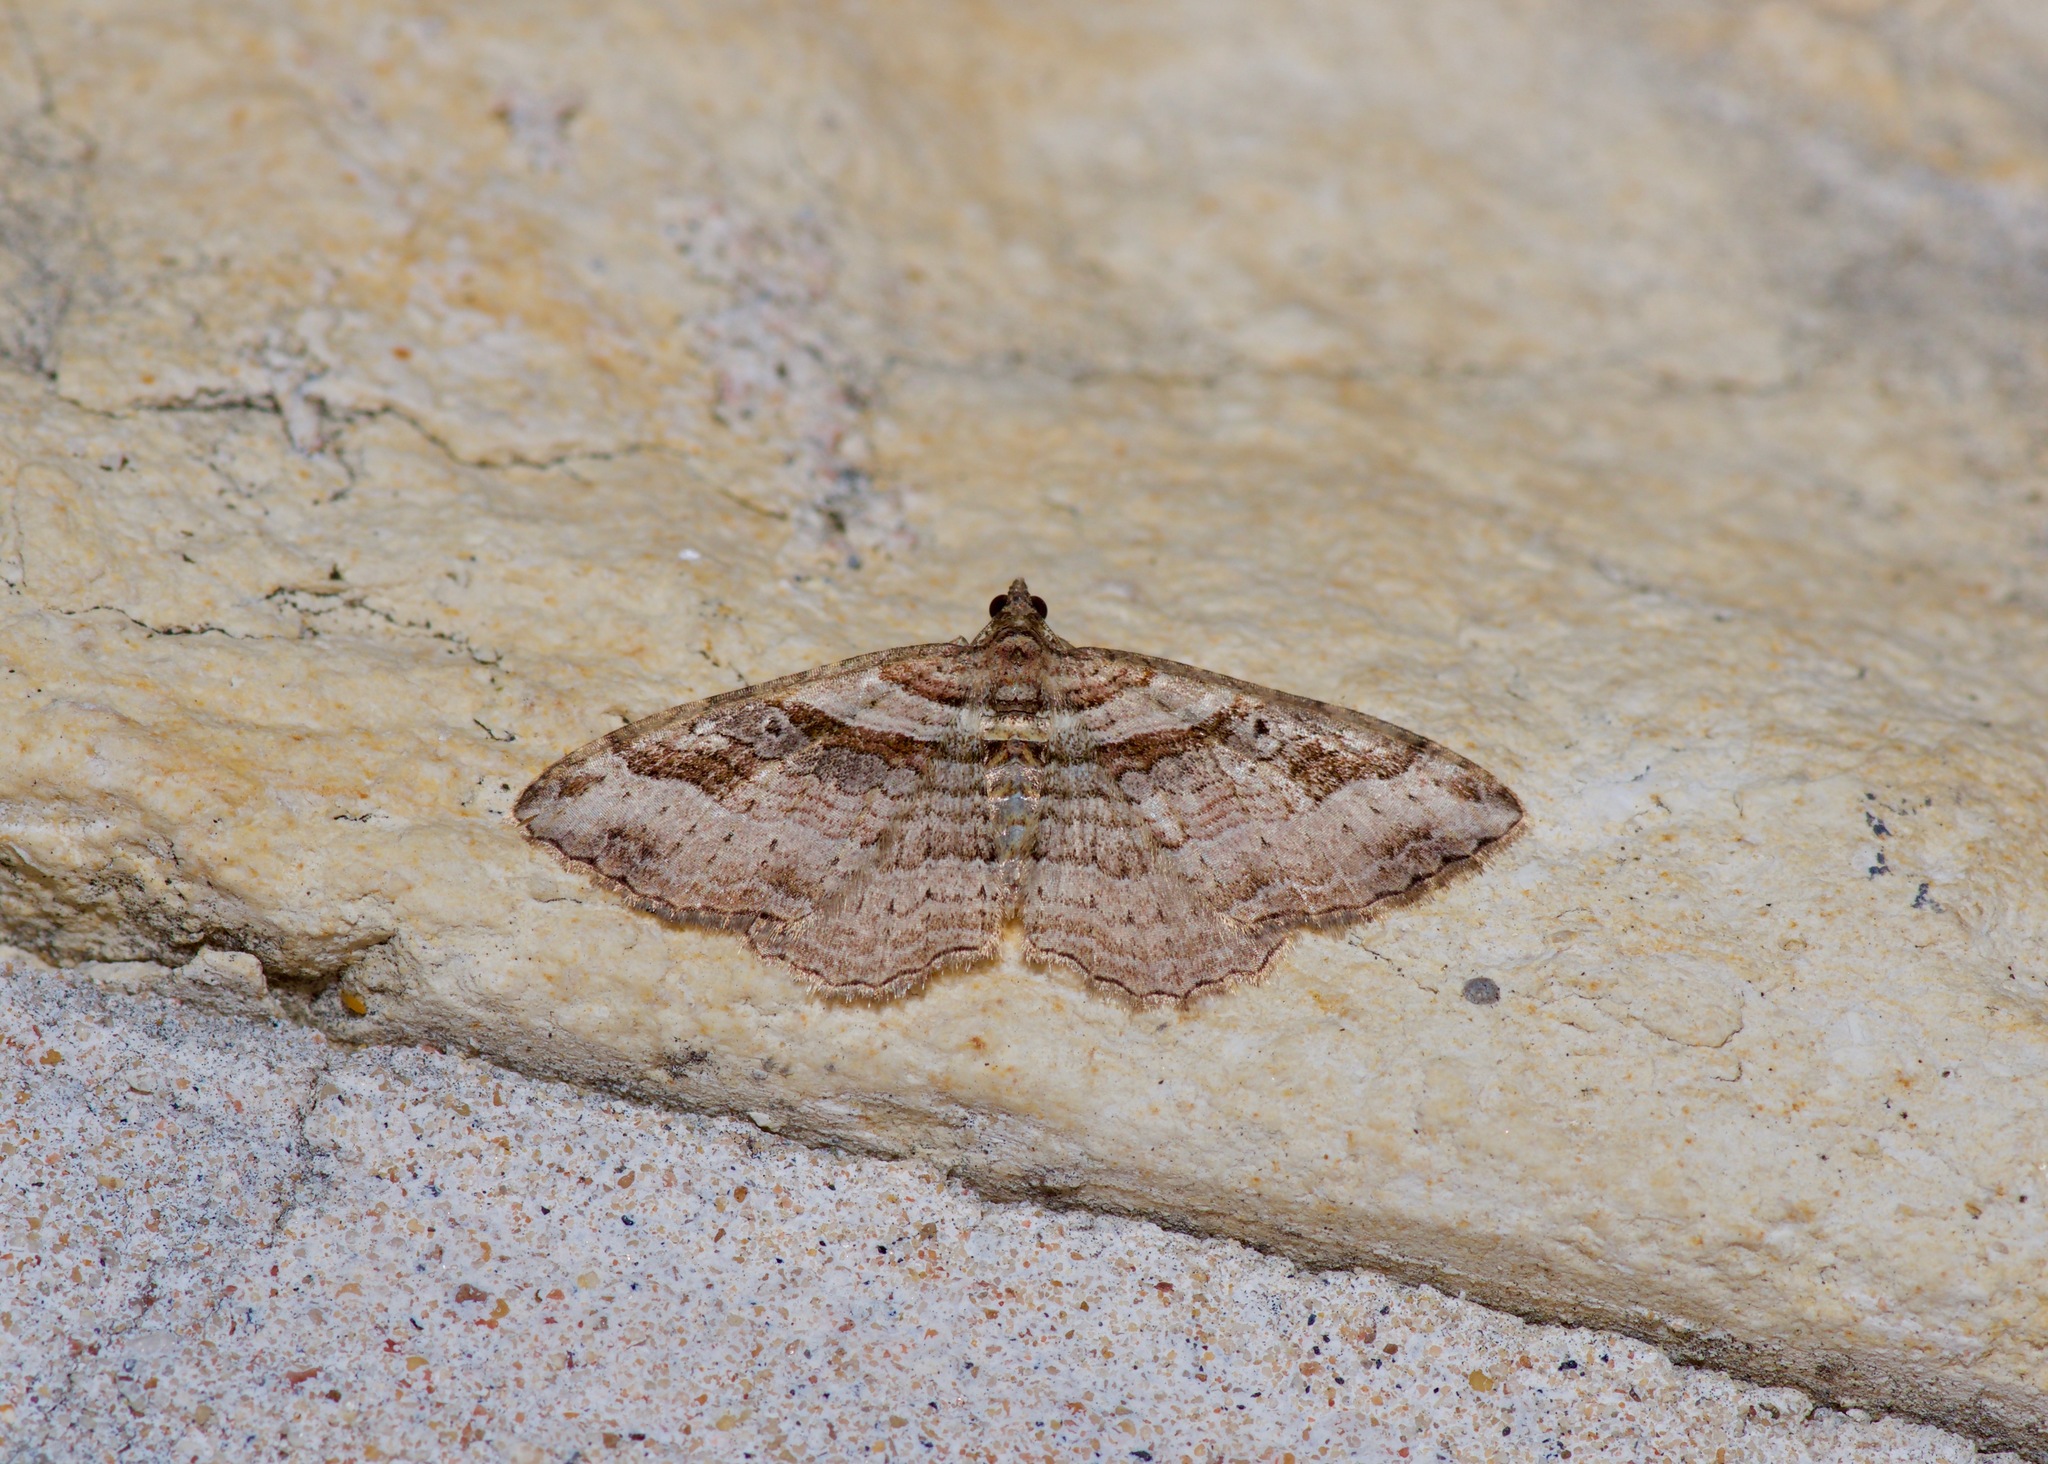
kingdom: Animalia
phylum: Arthropoda
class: Insecta
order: Lepidoptera
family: Geometridae
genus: Costaconvexa
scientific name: Costaconvexa centrostrigaria
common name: Bent-line carpet
